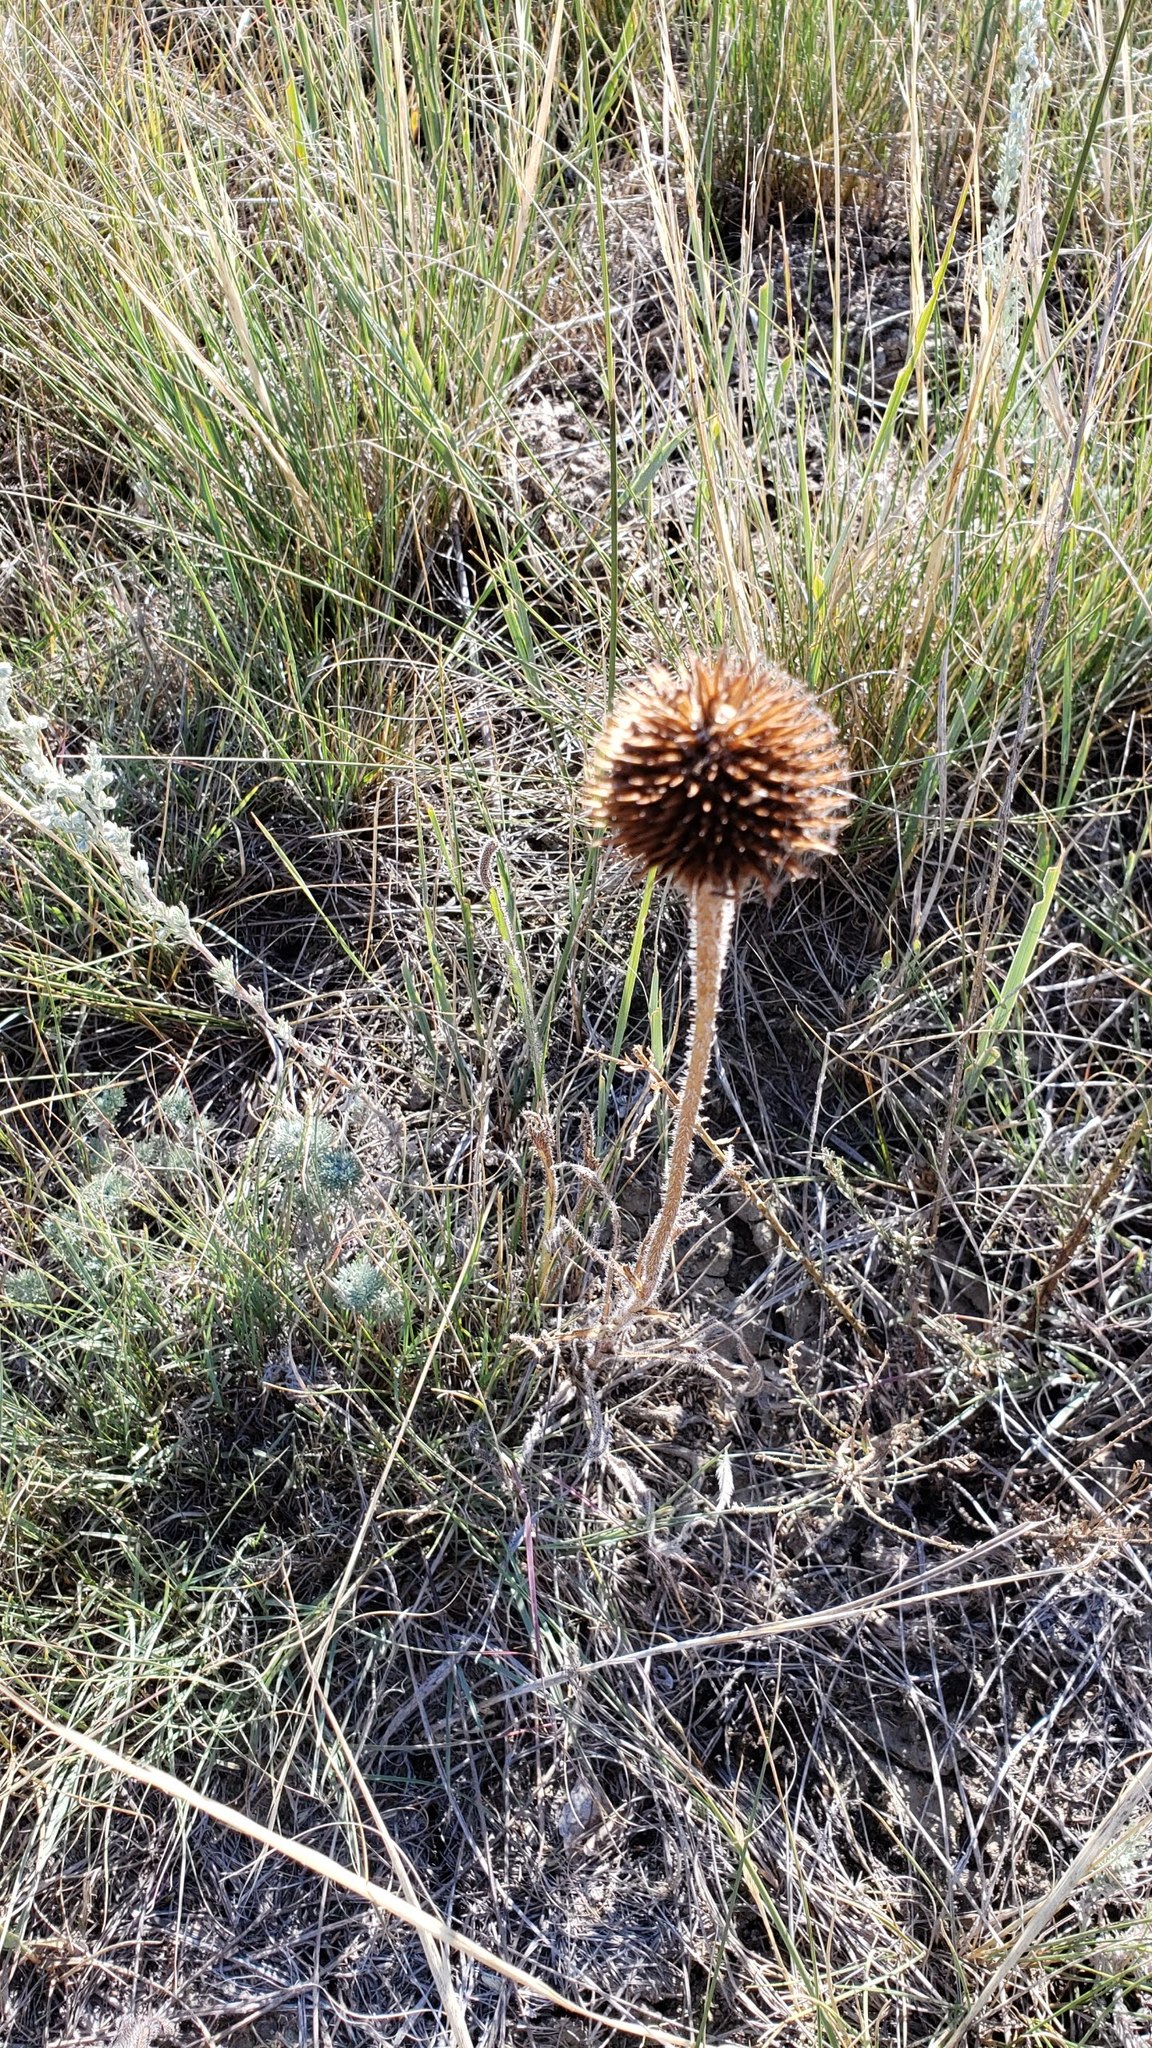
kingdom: Plantae
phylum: Tracheophyta
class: Magnoliopsida
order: Asterales
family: Asteraceae
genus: Echinacea
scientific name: Echinacea angustifolia
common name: Black-sampson echinacea
